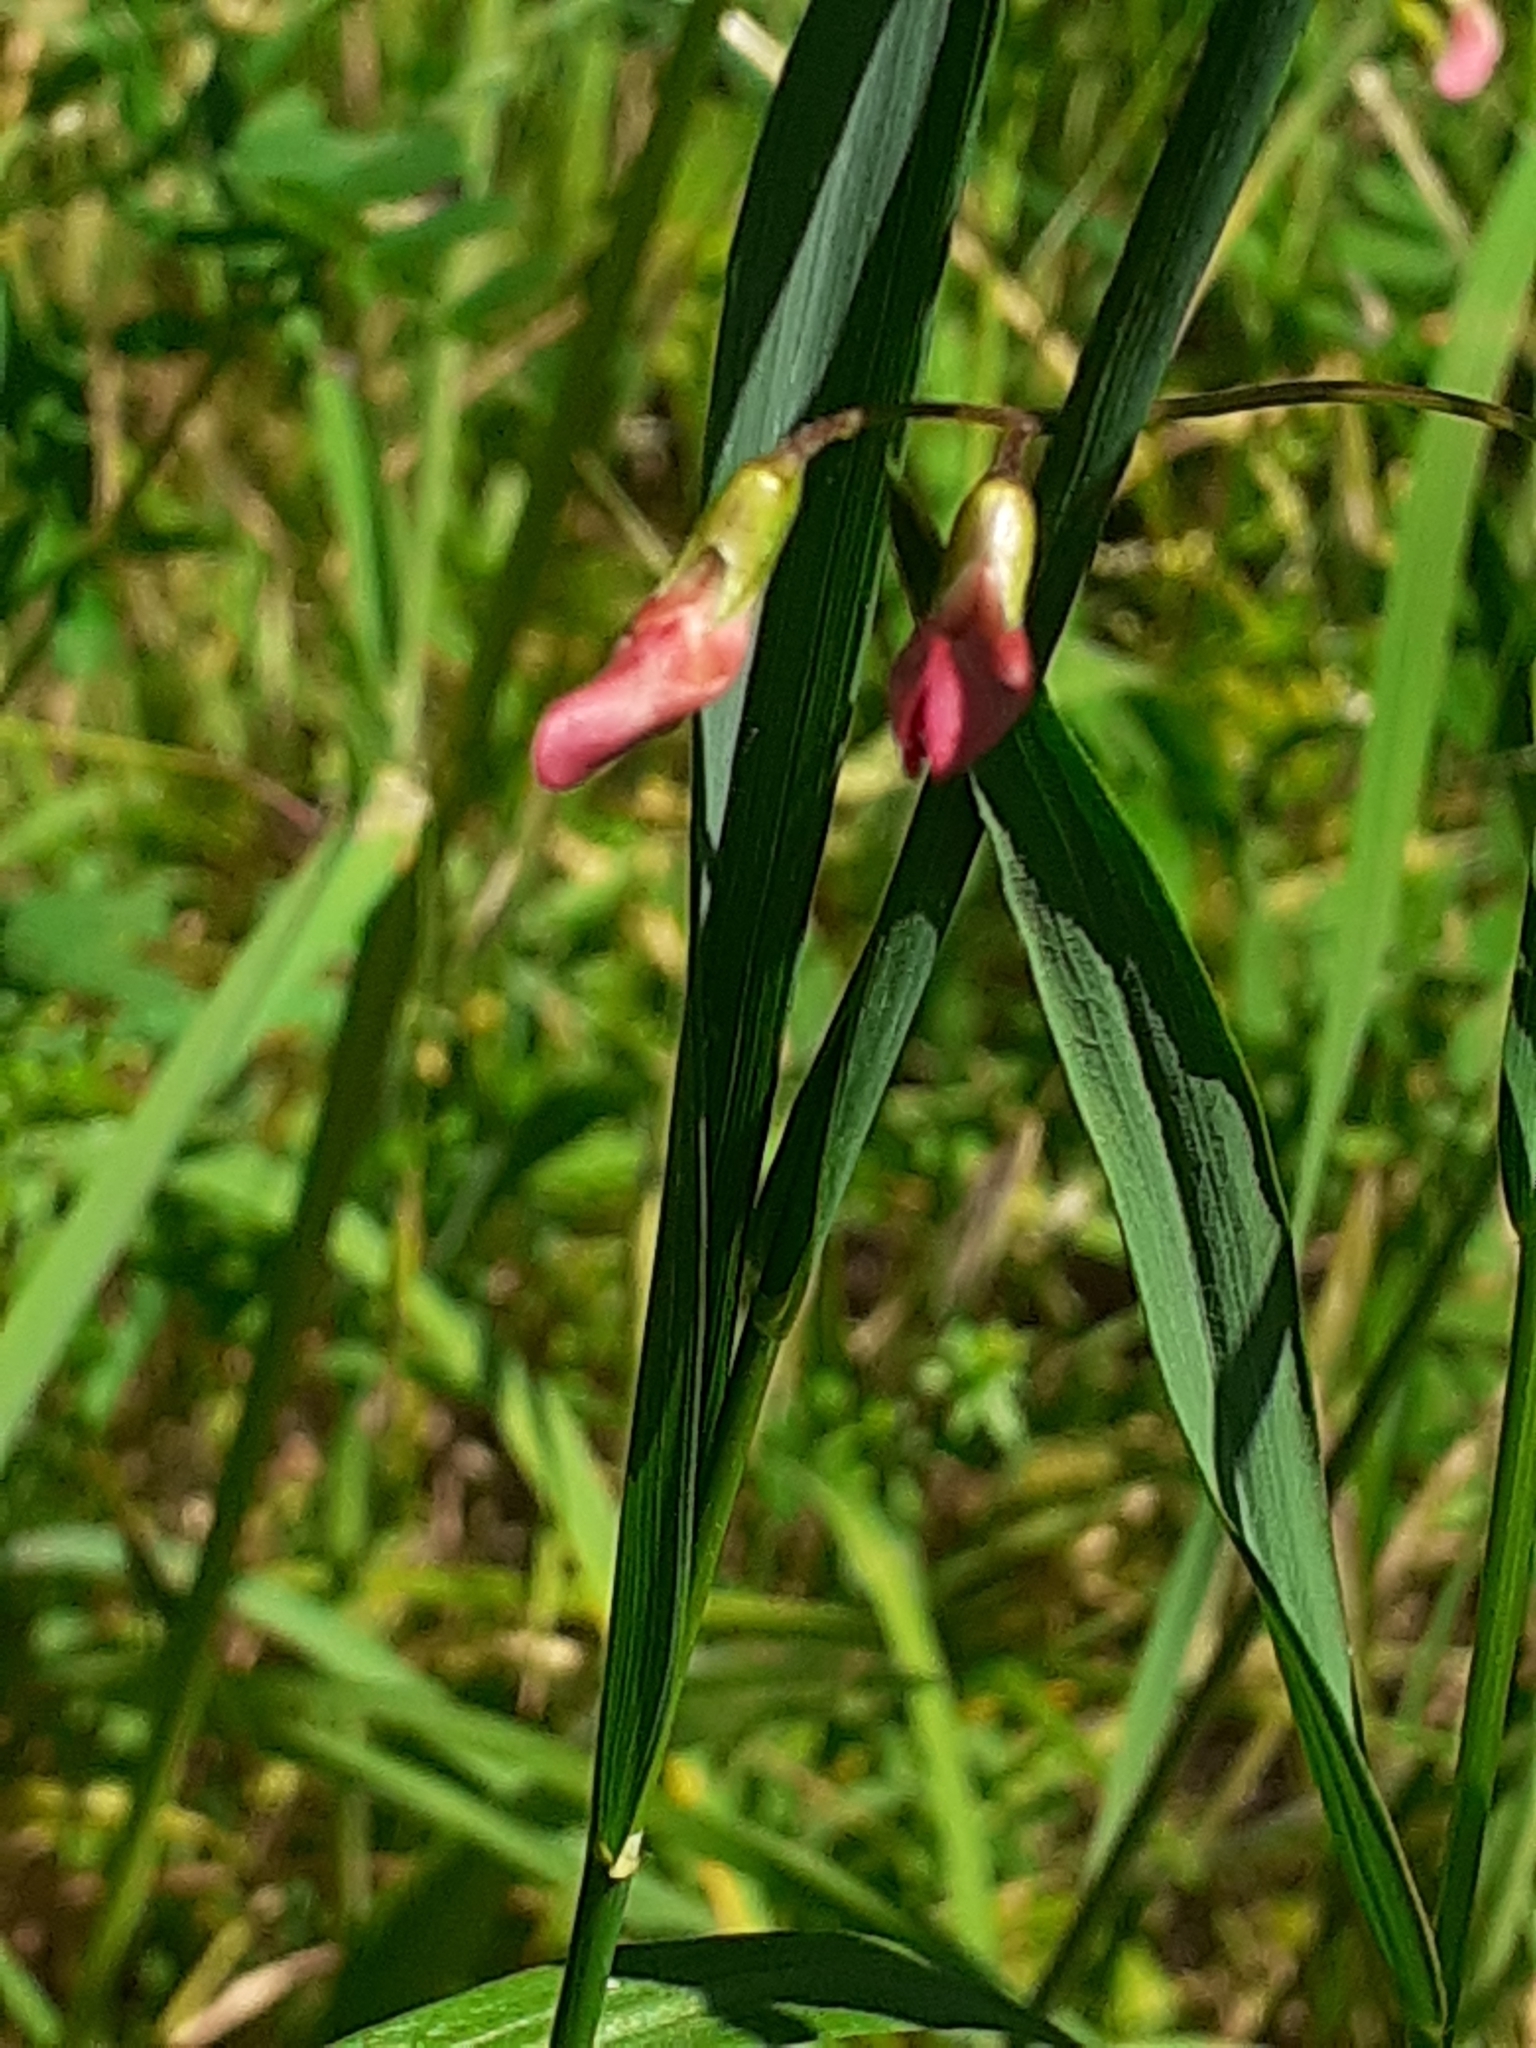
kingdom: Plantae
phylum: Tracheophyta
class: Magnoliopsida
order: Fabales
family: Fabaceae
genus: Lathyrus
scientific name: Lathyrus nissolia
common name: Grass vetchling
